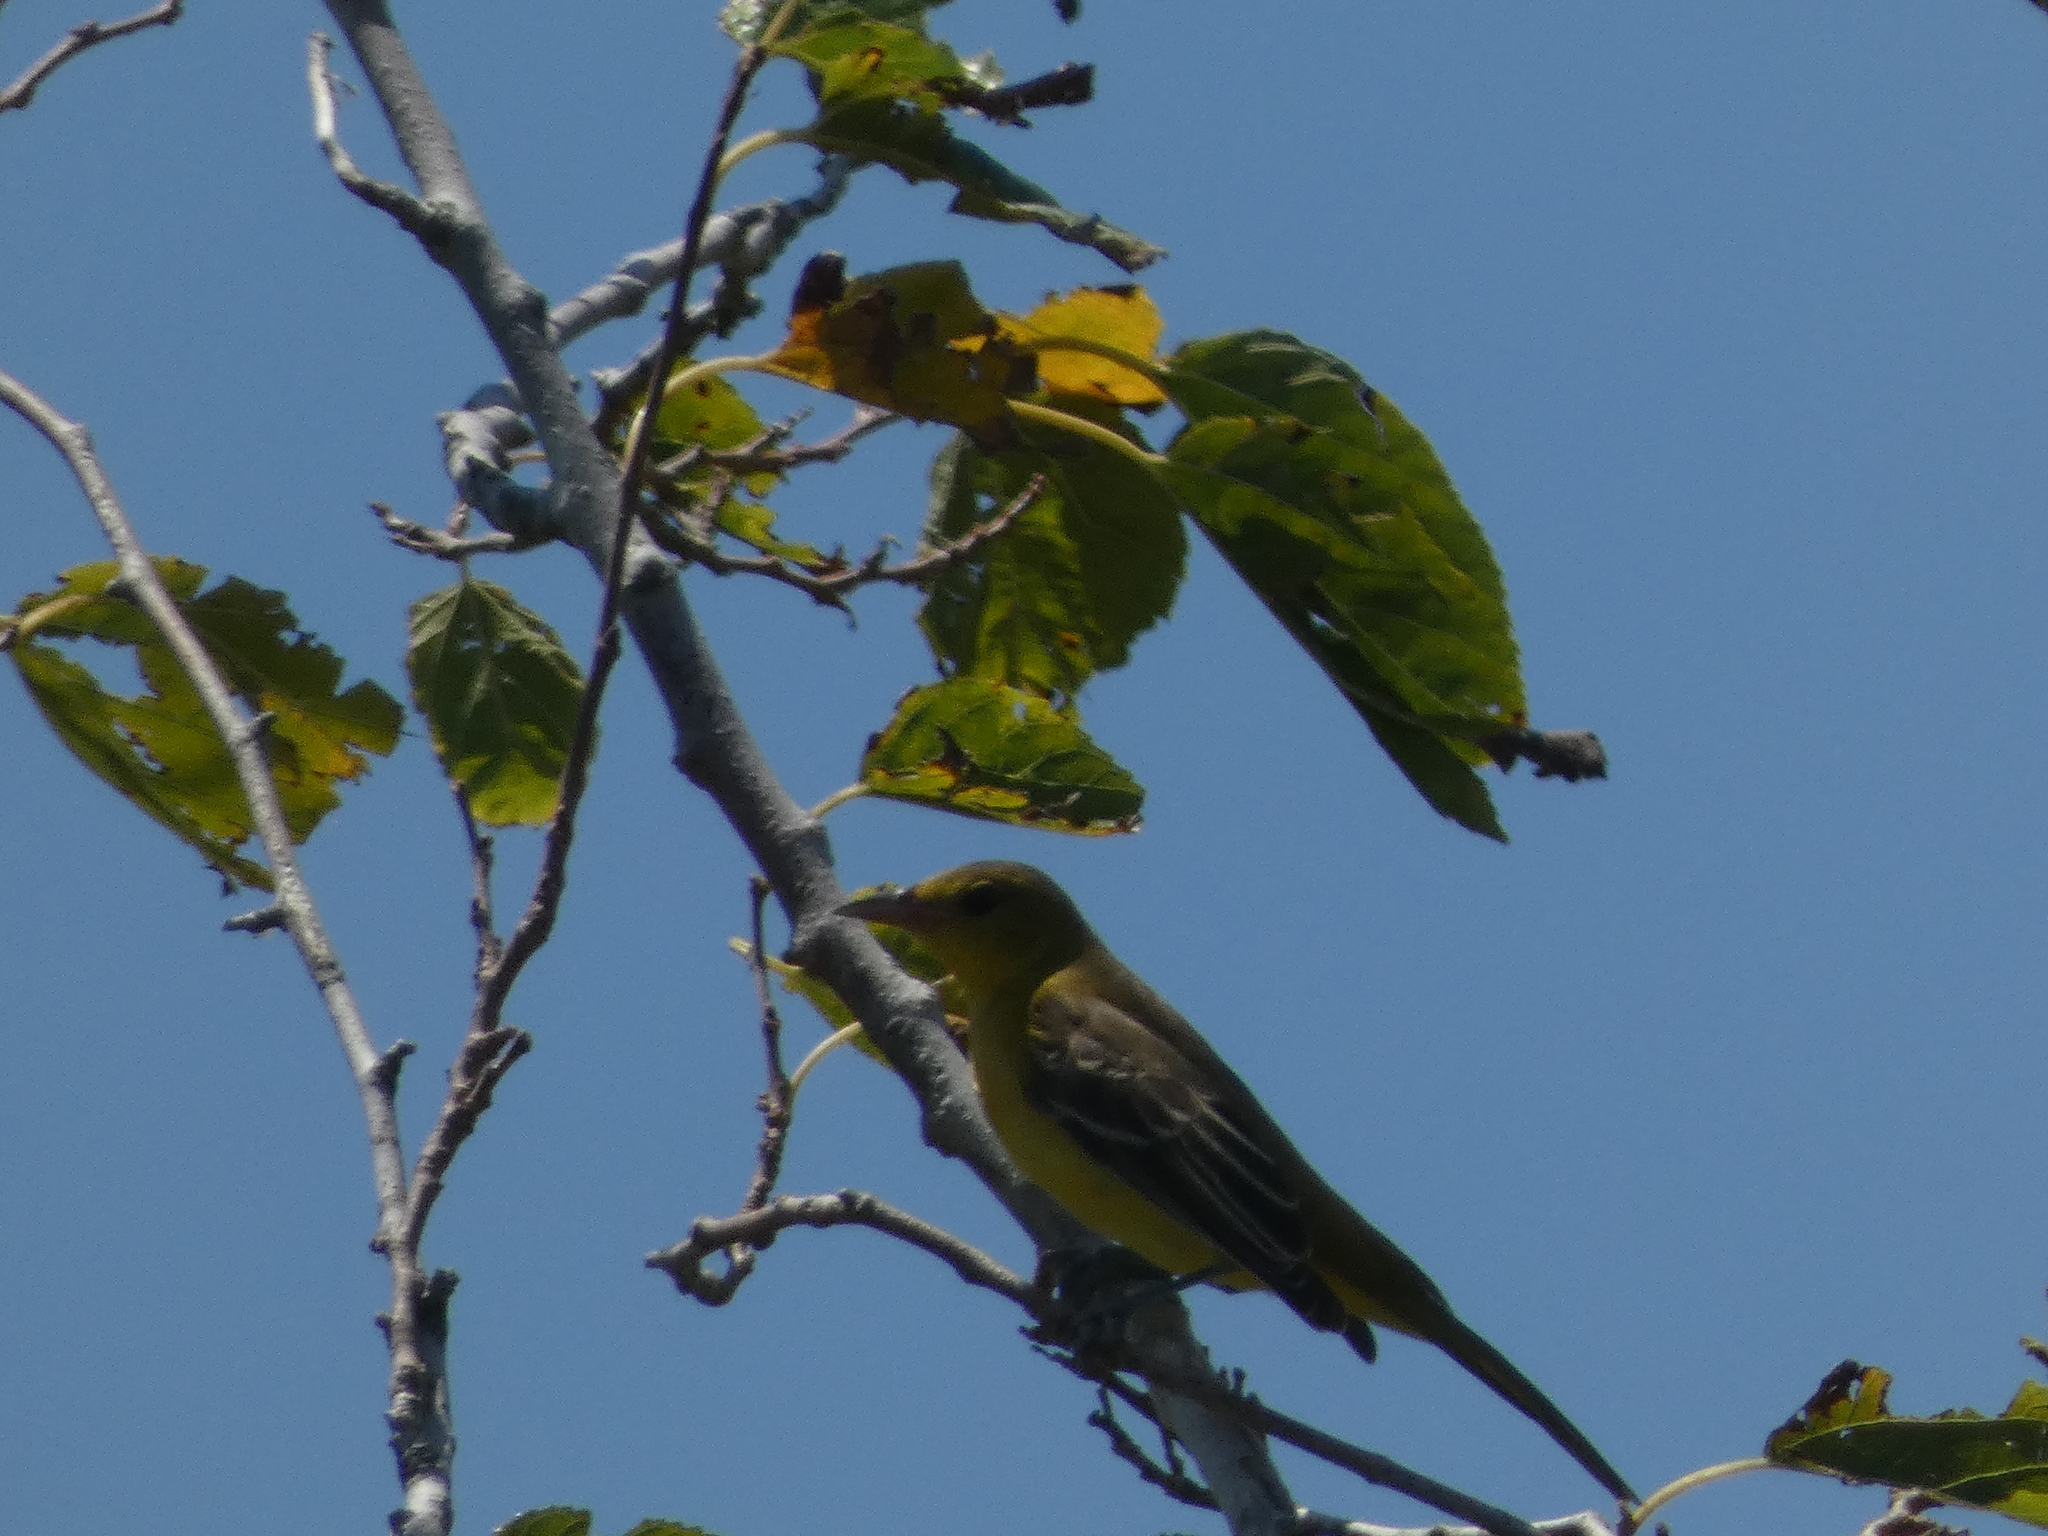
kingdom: Animalia
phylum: Chordata
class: Aves
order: Passeriformes
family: Icteridae
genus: Icterus
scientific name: Icterus spurius
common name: Orchard oriole
